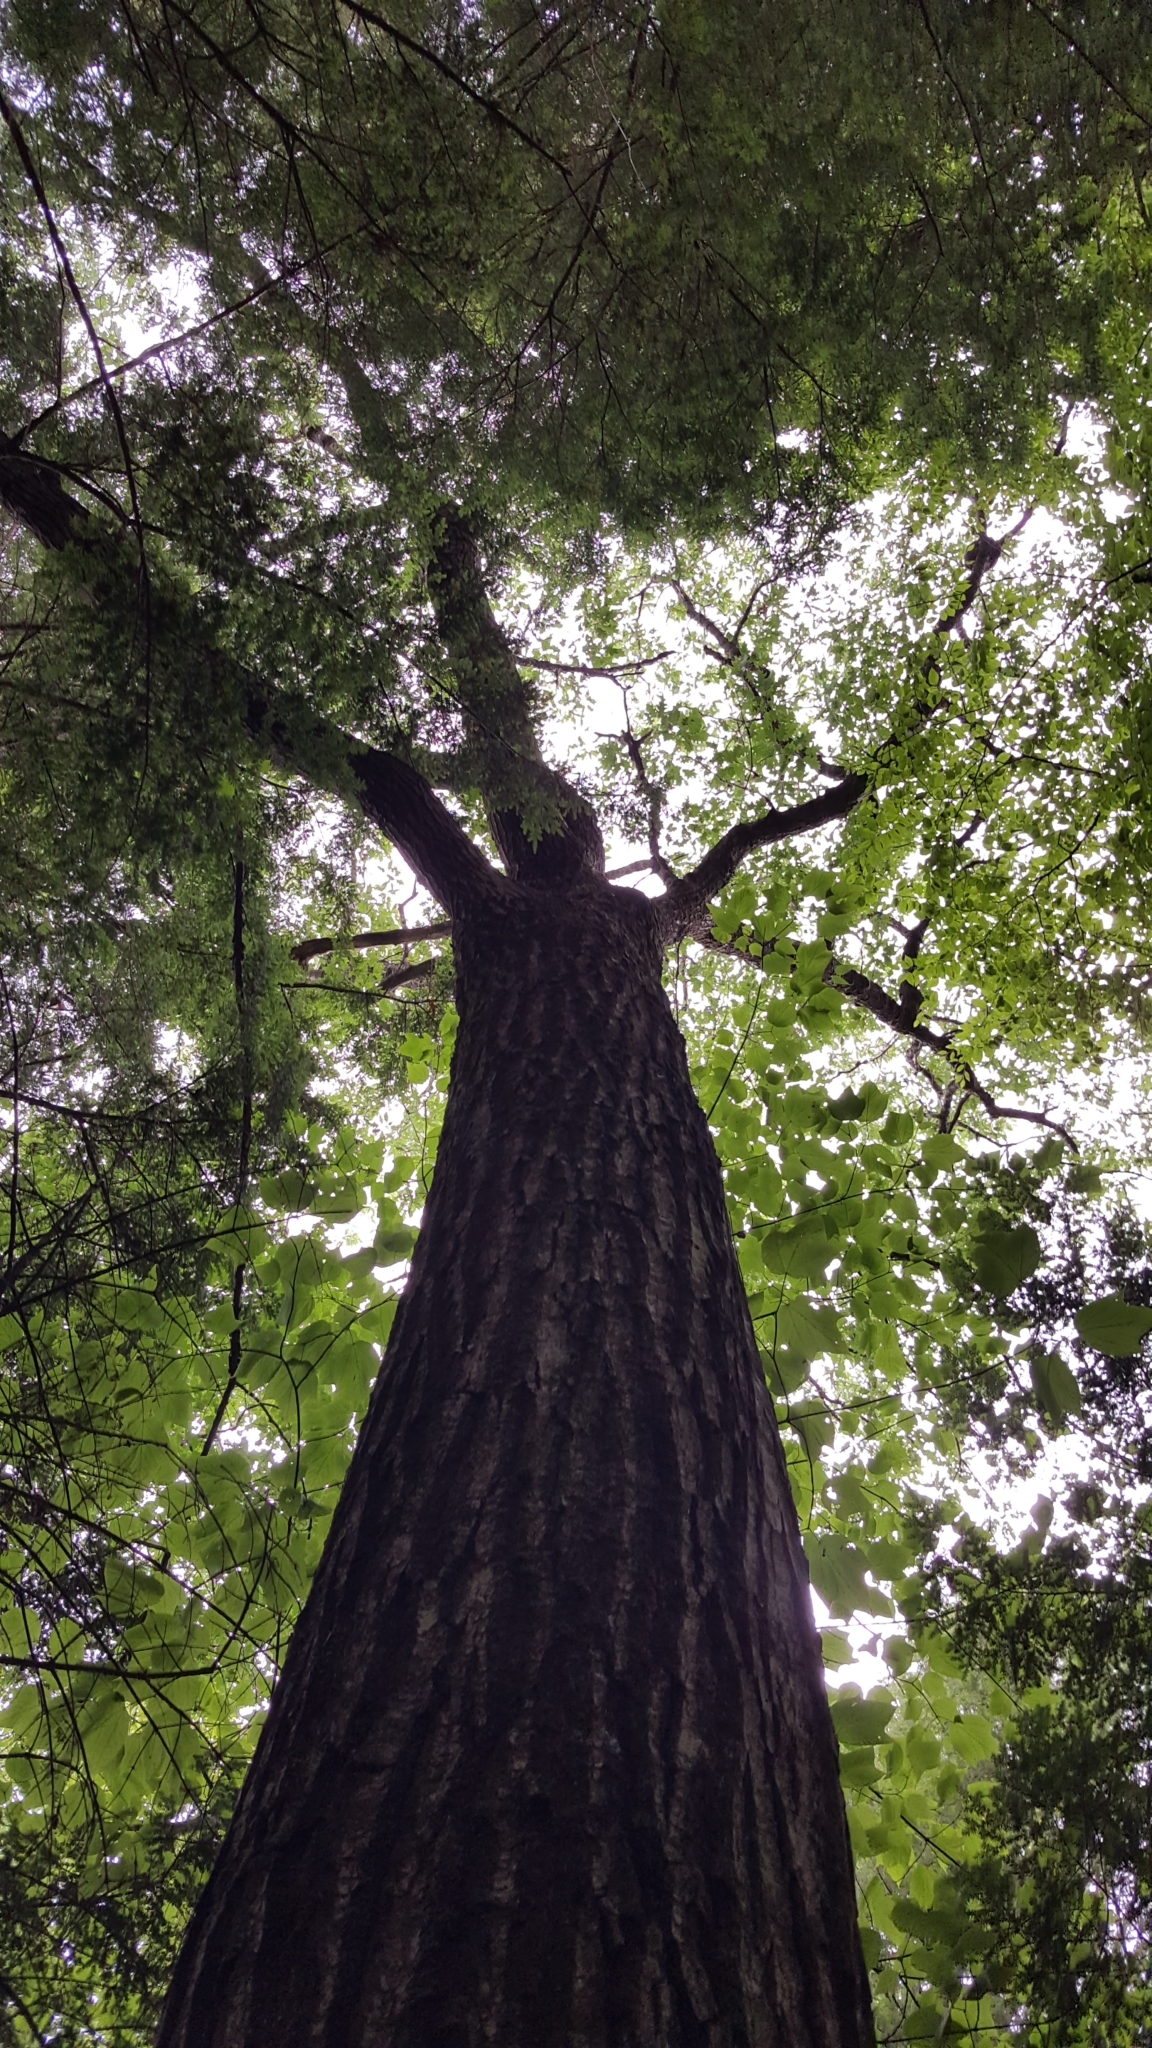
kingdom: Plantae
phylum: Tracheophyta
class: Magnoliopsida
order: Fagales
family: Fagaceae
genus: Quercus
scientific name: Quercus rubra
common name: Red oak
